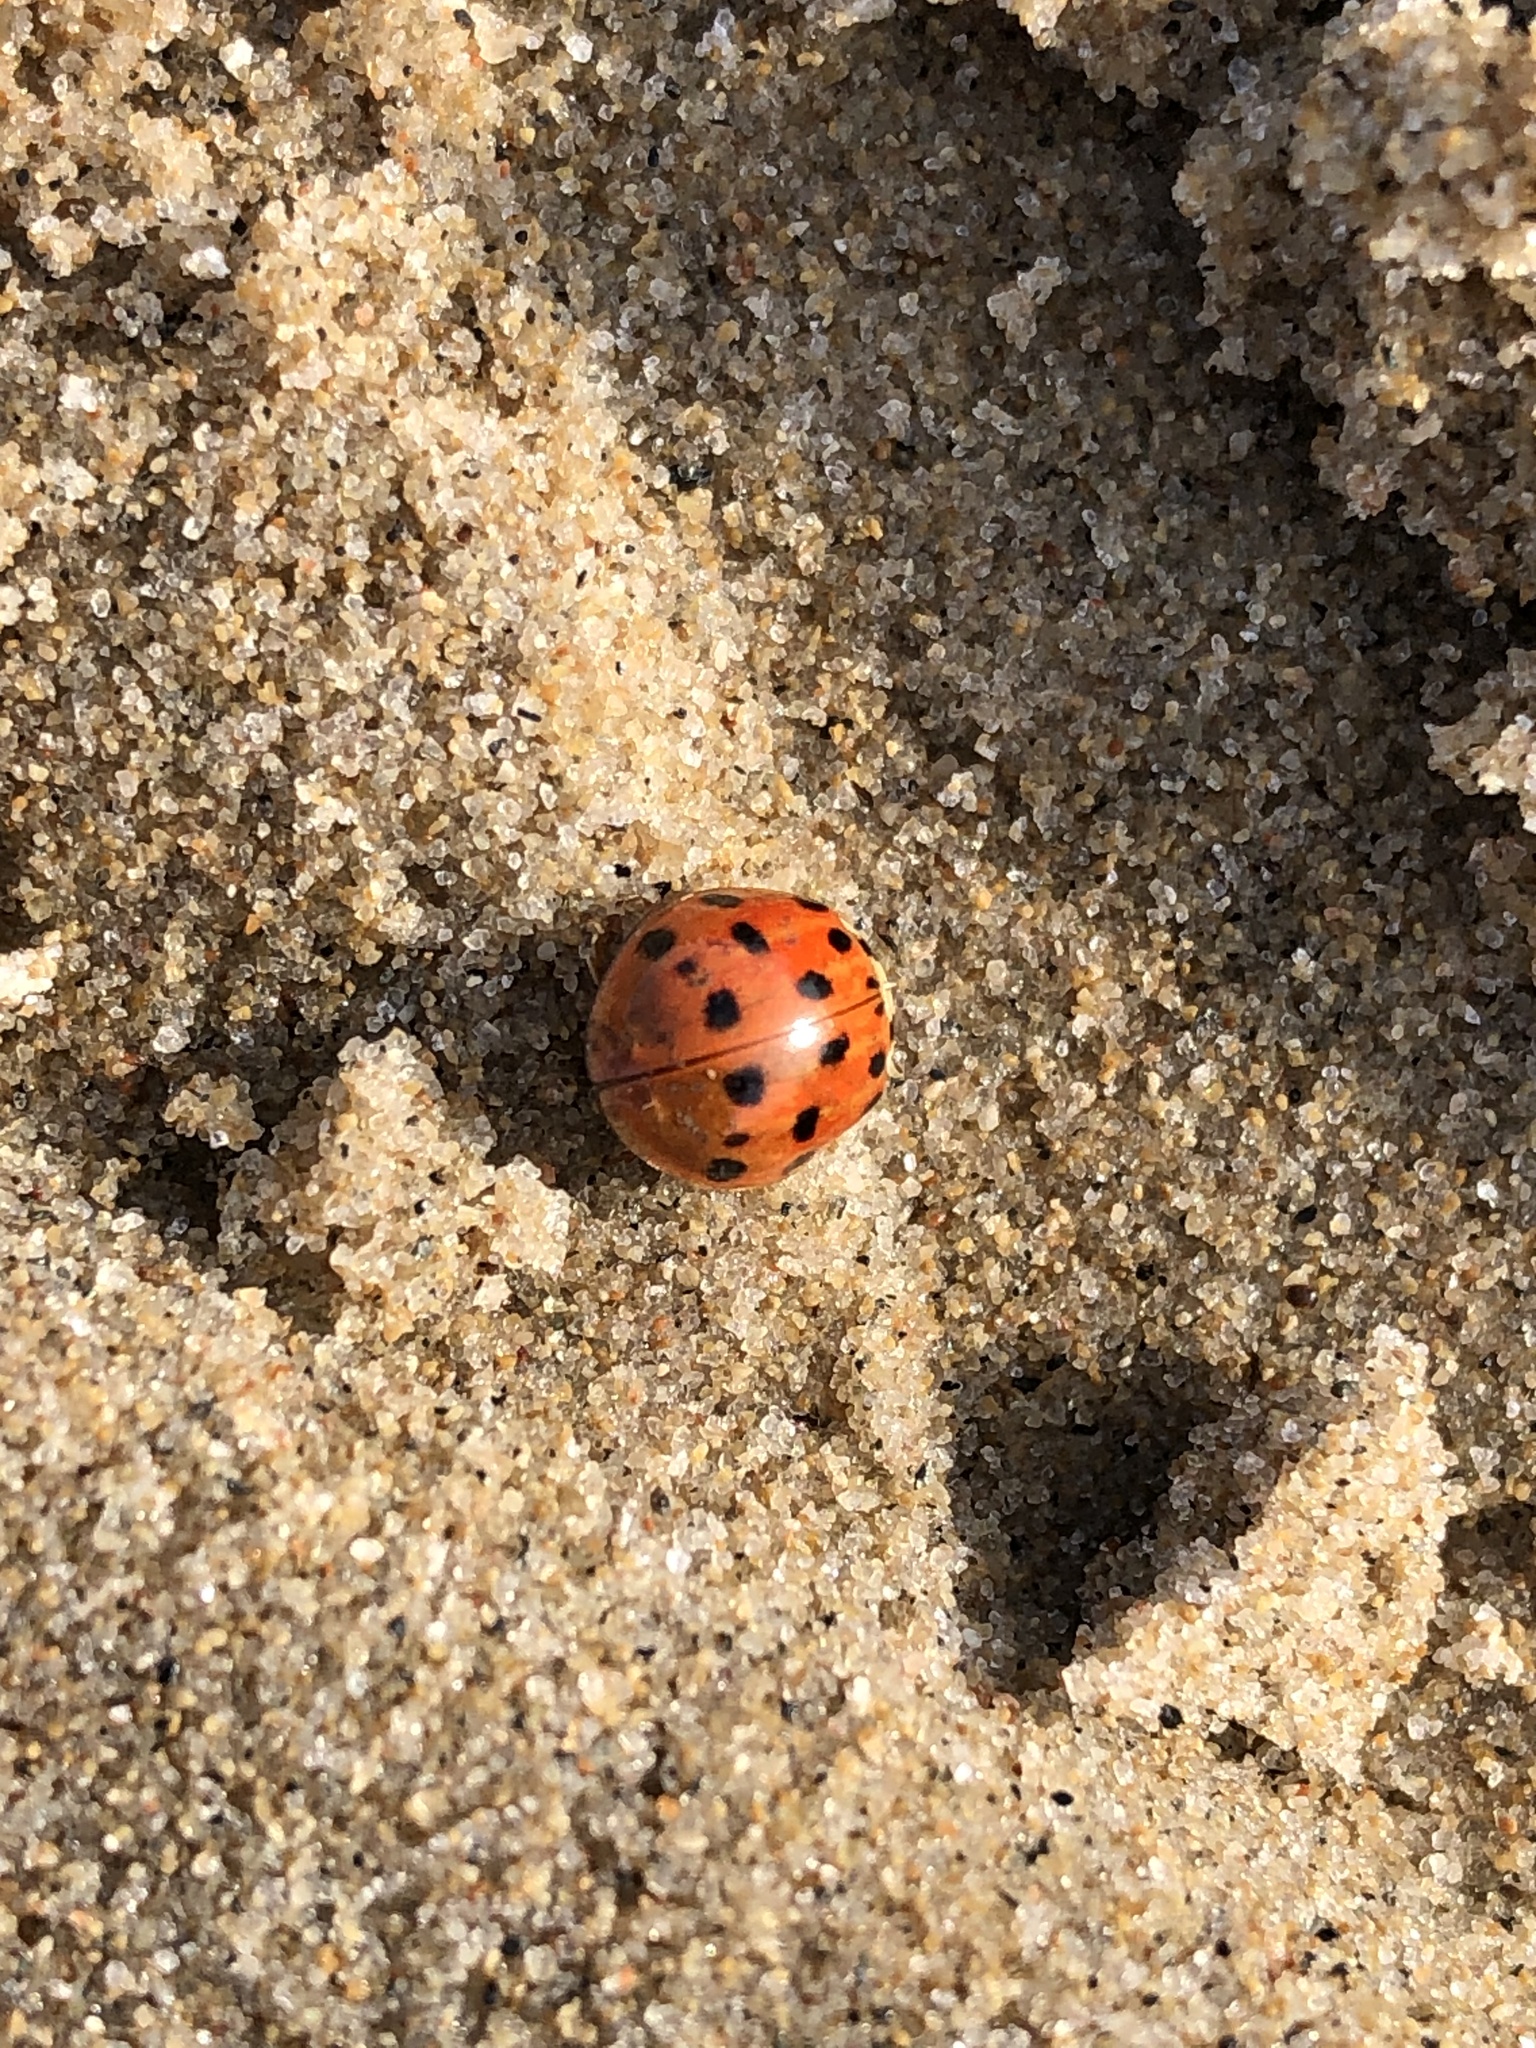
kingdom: Animalia
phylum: Arthropoda
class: Insecta
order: Coleoptera
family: Coccinellidae
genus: Harmonia
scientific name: Harmonia axyridis
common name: Harlequin ladybird
